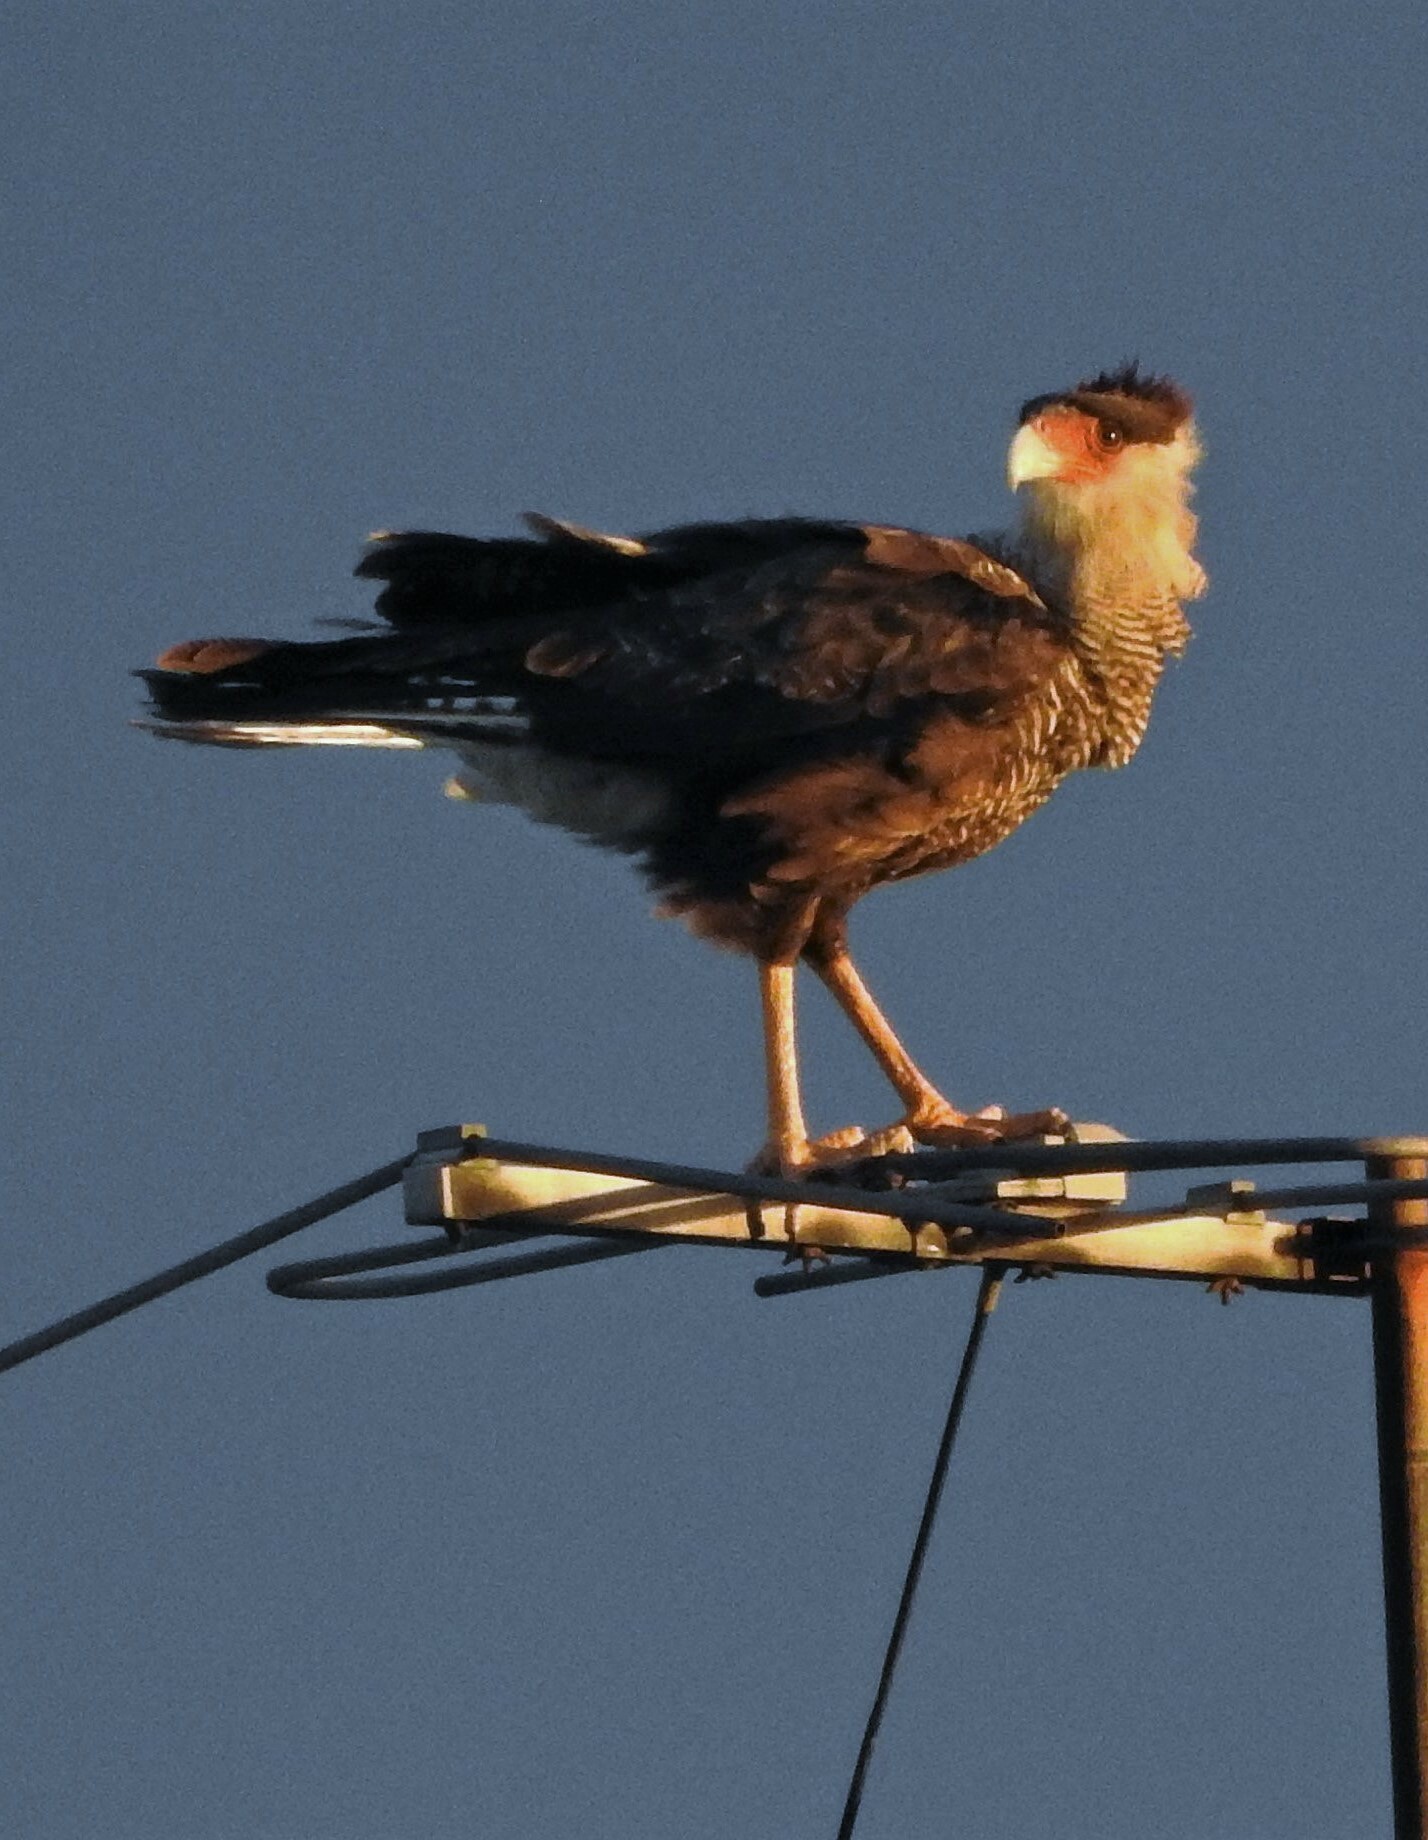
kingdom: Animalia
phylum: Chordata
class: Aves
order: Falconiformes
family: Falconidae
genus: Caracara
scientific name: Caracara plancus
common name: Southern caracara
